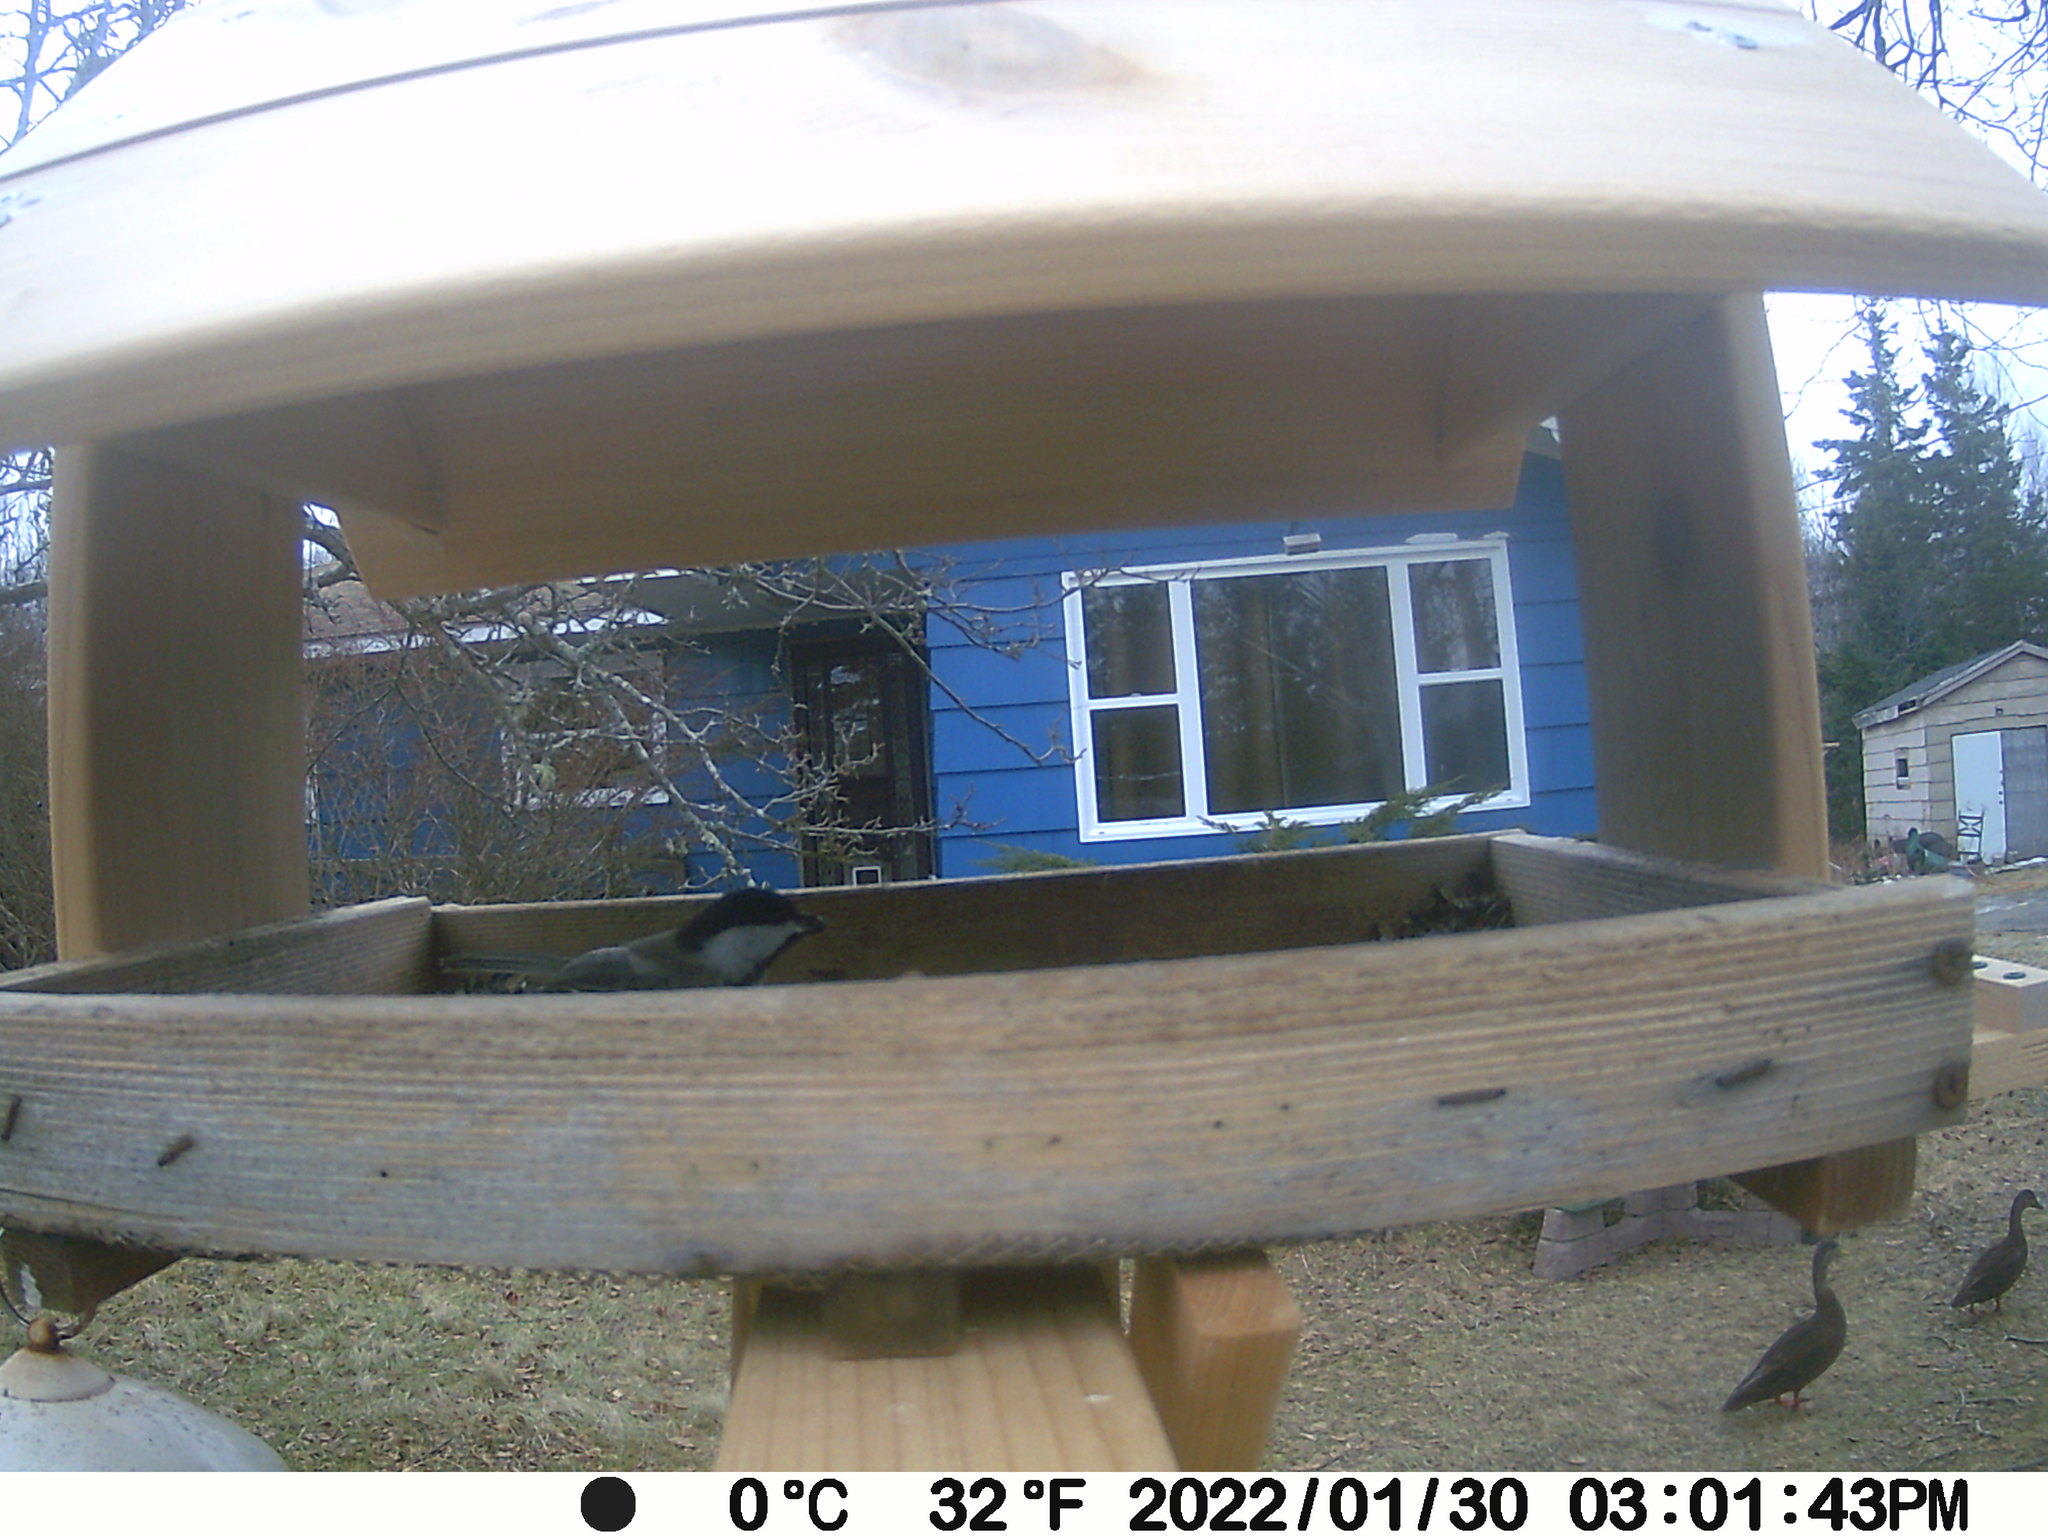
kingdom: Animalia
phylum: Chordata
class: Aves
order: Anseriformes
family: Anatidae
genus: Anas
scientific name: Anas rubripes
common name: American black duck
